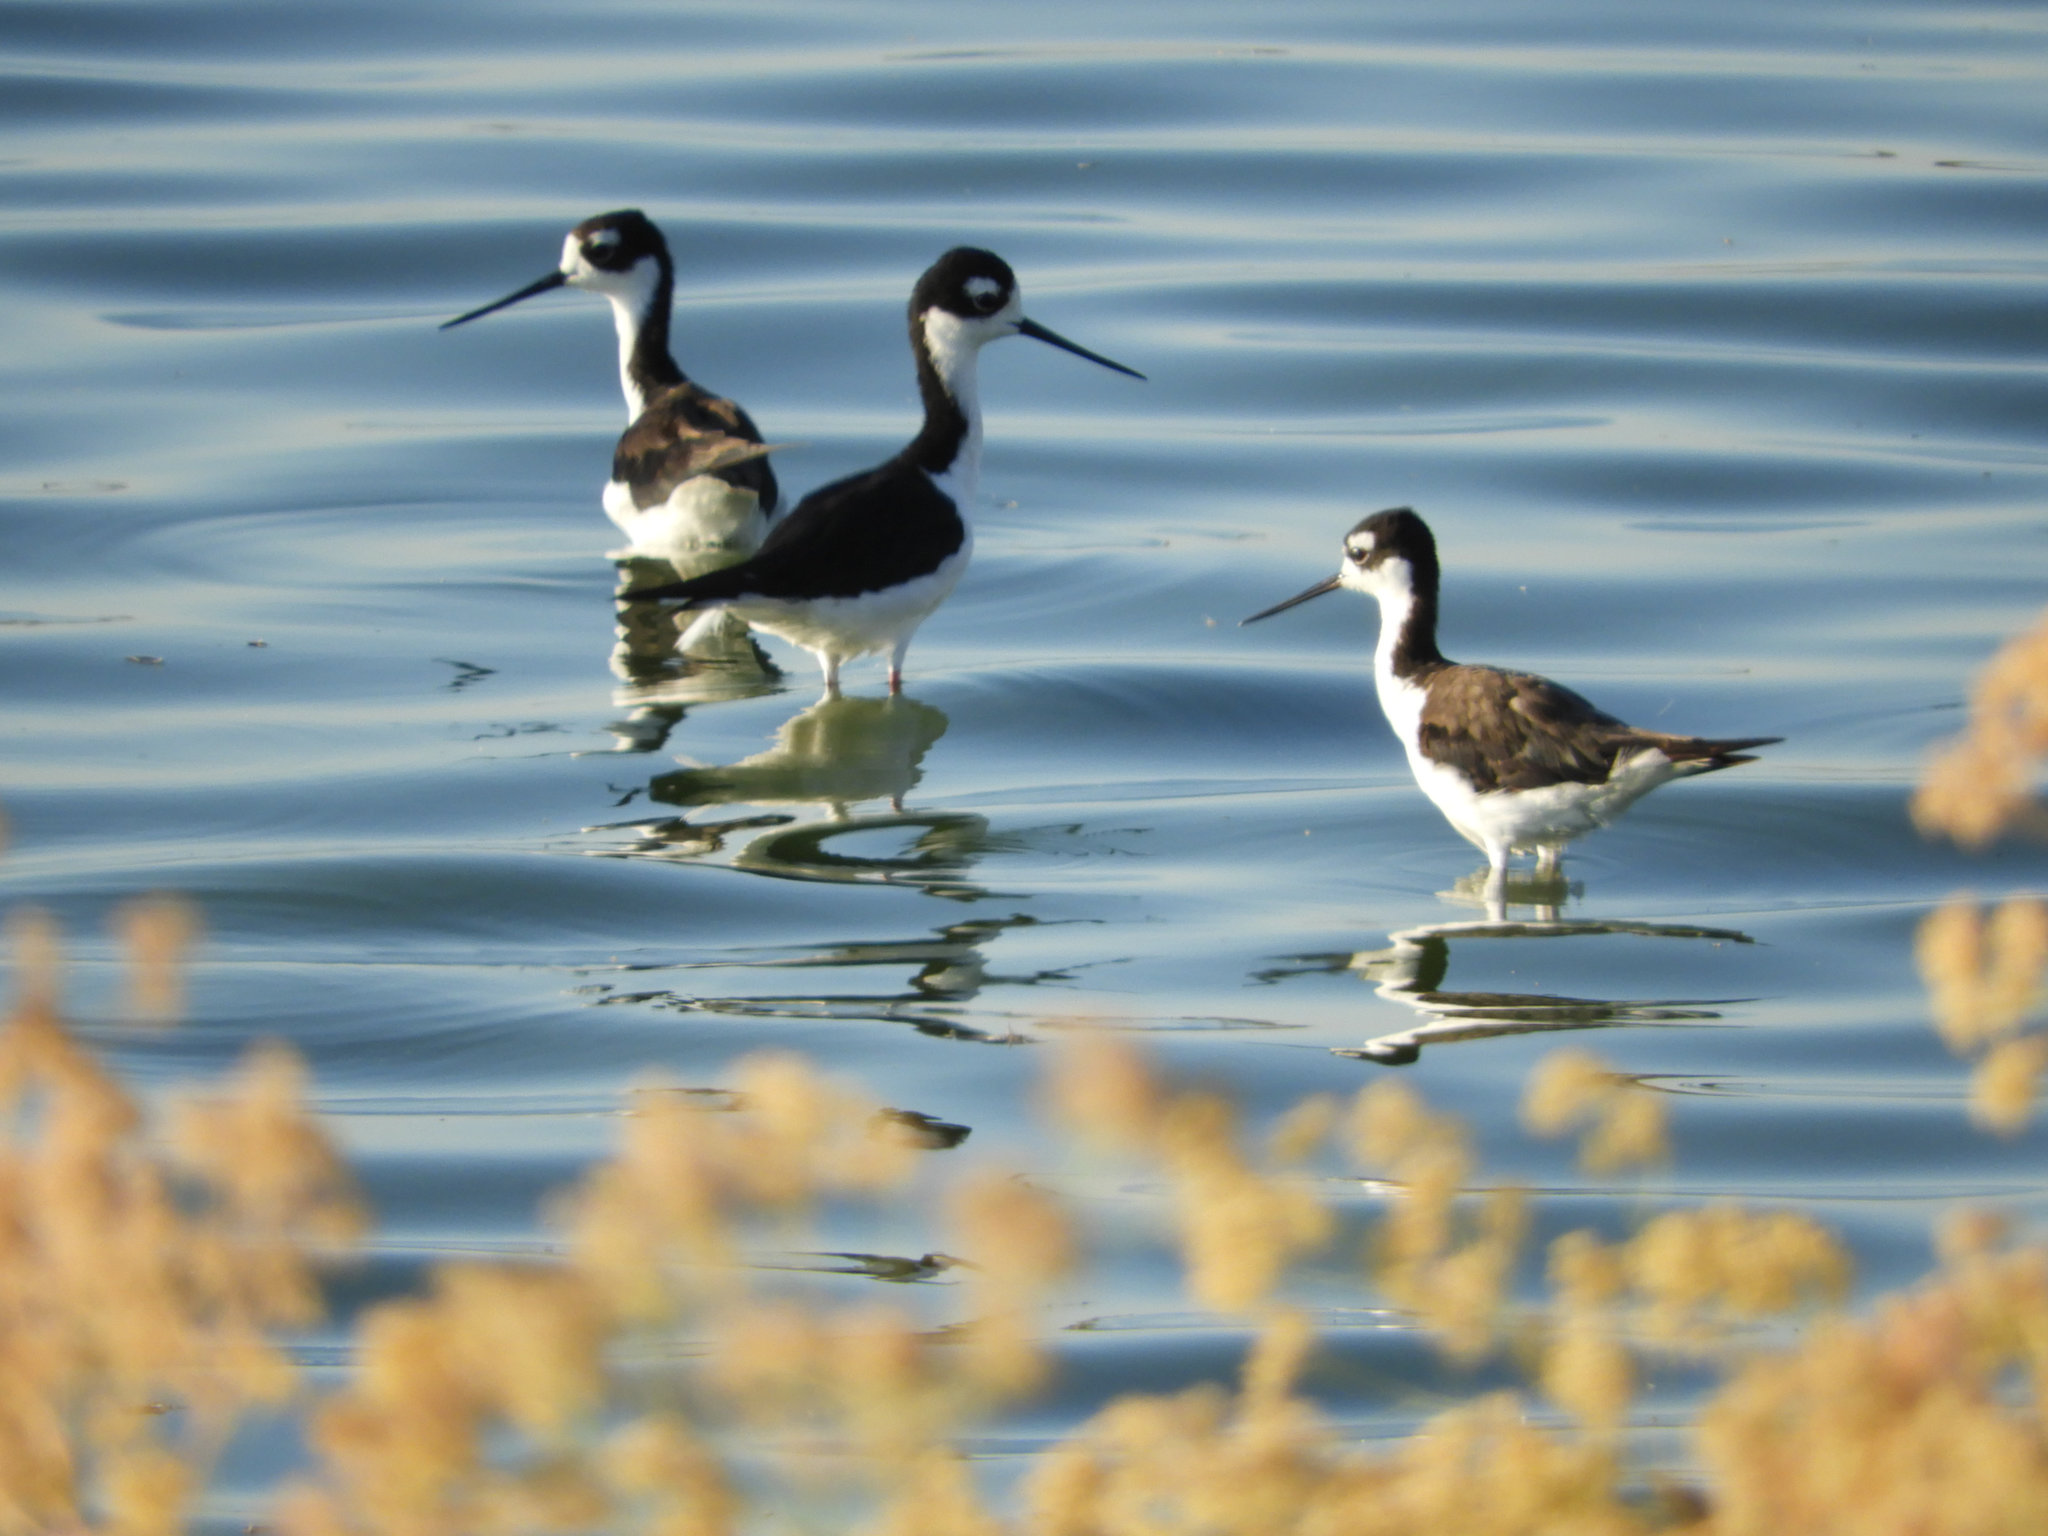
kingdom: Animalia
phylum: Chordata
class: Aves
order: Charadriiformes
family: Recurvirostridae
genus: Himantopus
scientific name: Himantopus mexicanus
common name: Black-necked stilt
